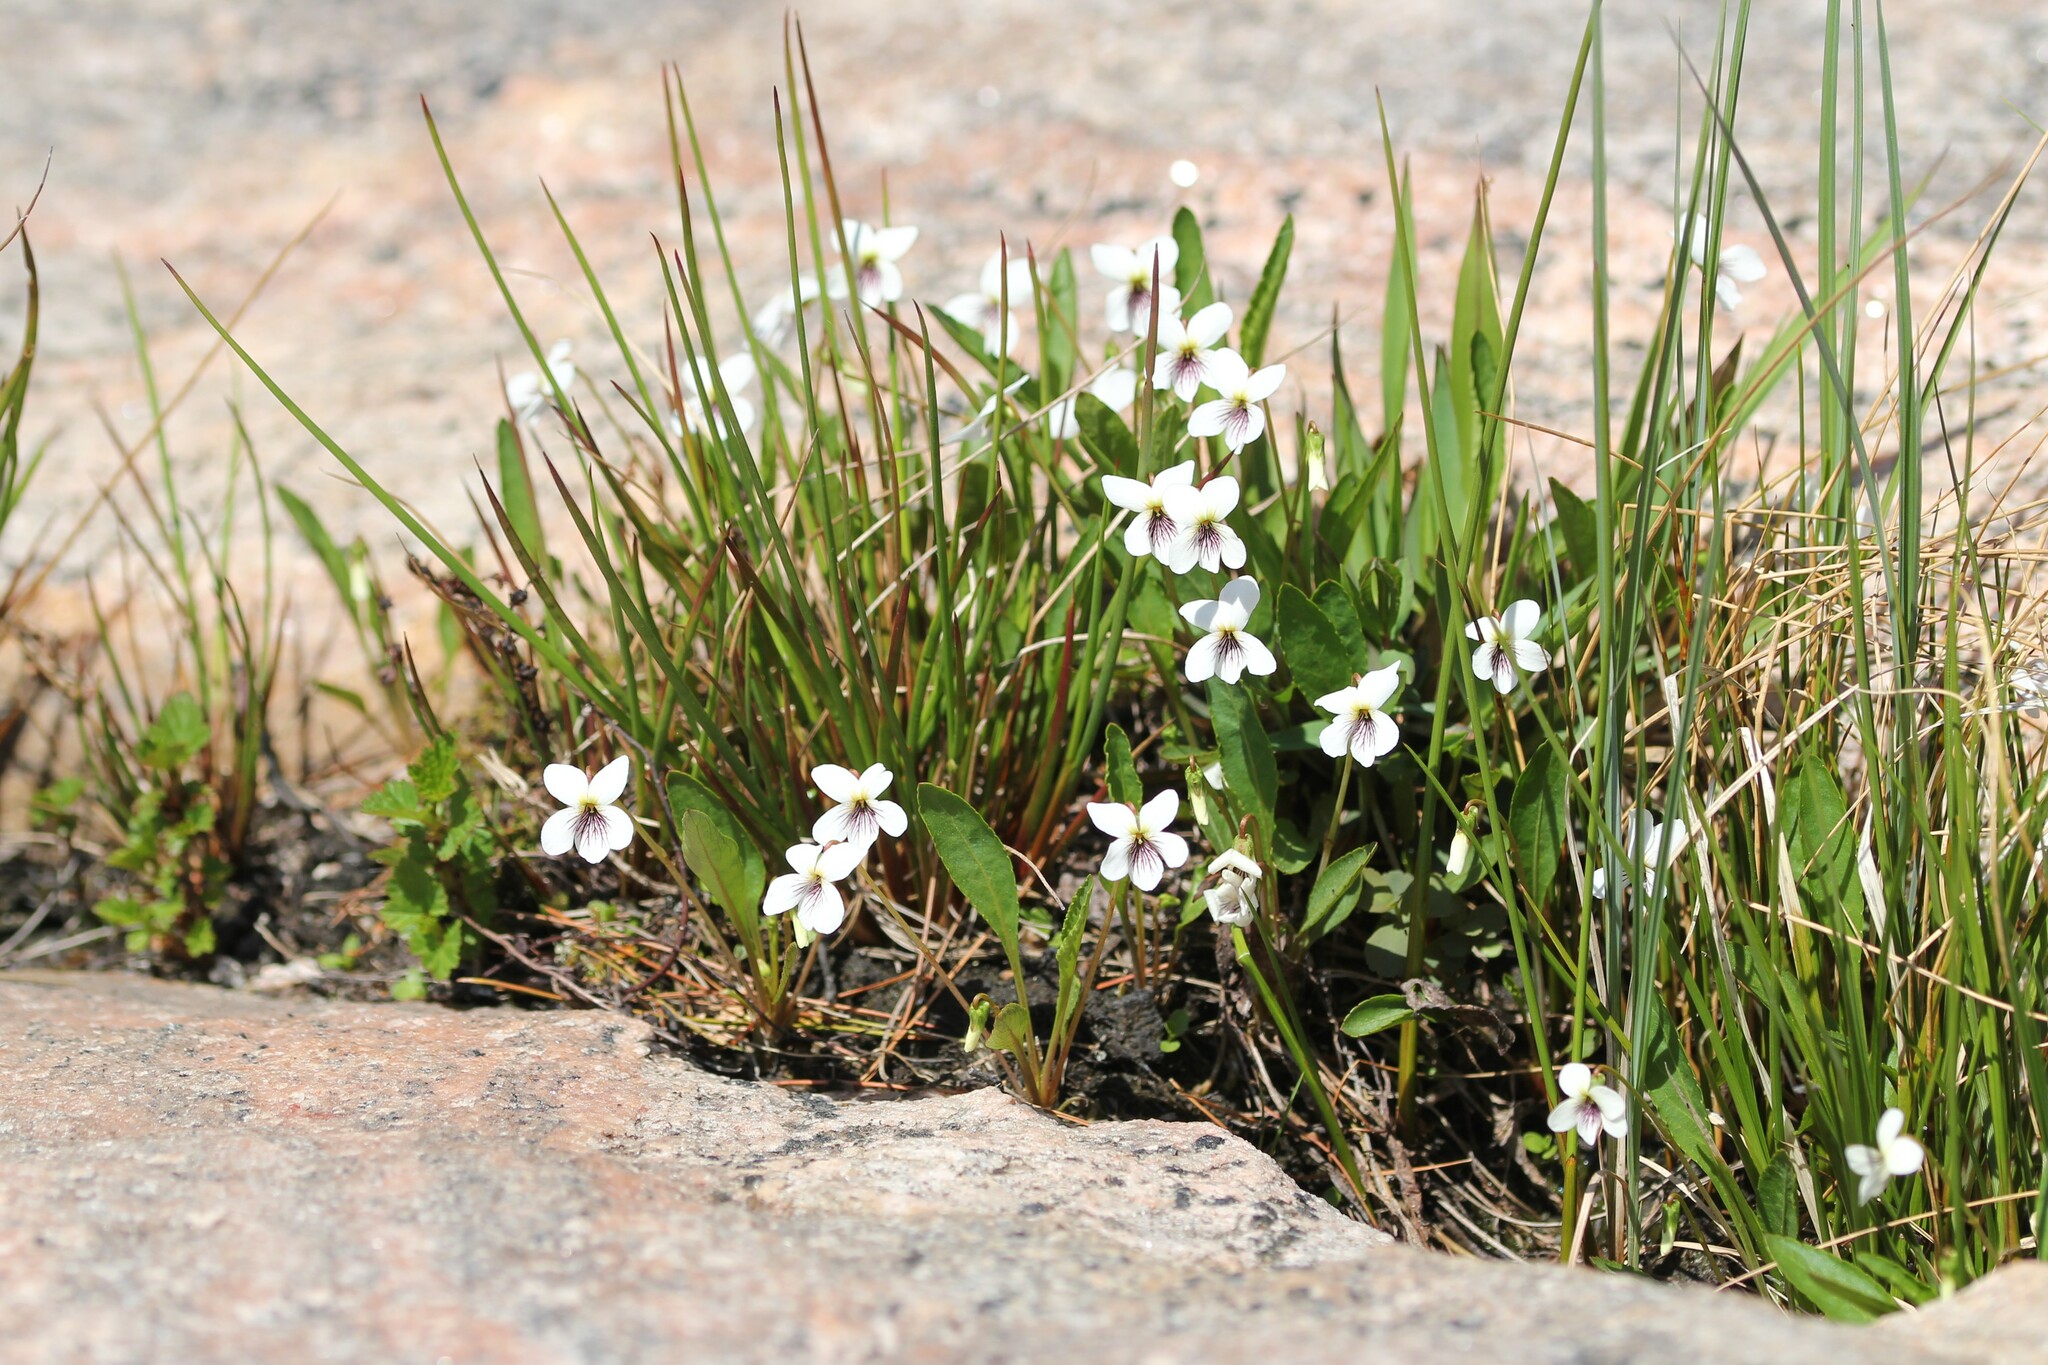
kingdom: Plantae
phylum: Tracheophyta
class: Magnoliopsida
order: Malpighiales
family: Violaceae
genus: Viola
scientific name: Viola lanceolata
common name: Bog white violet
